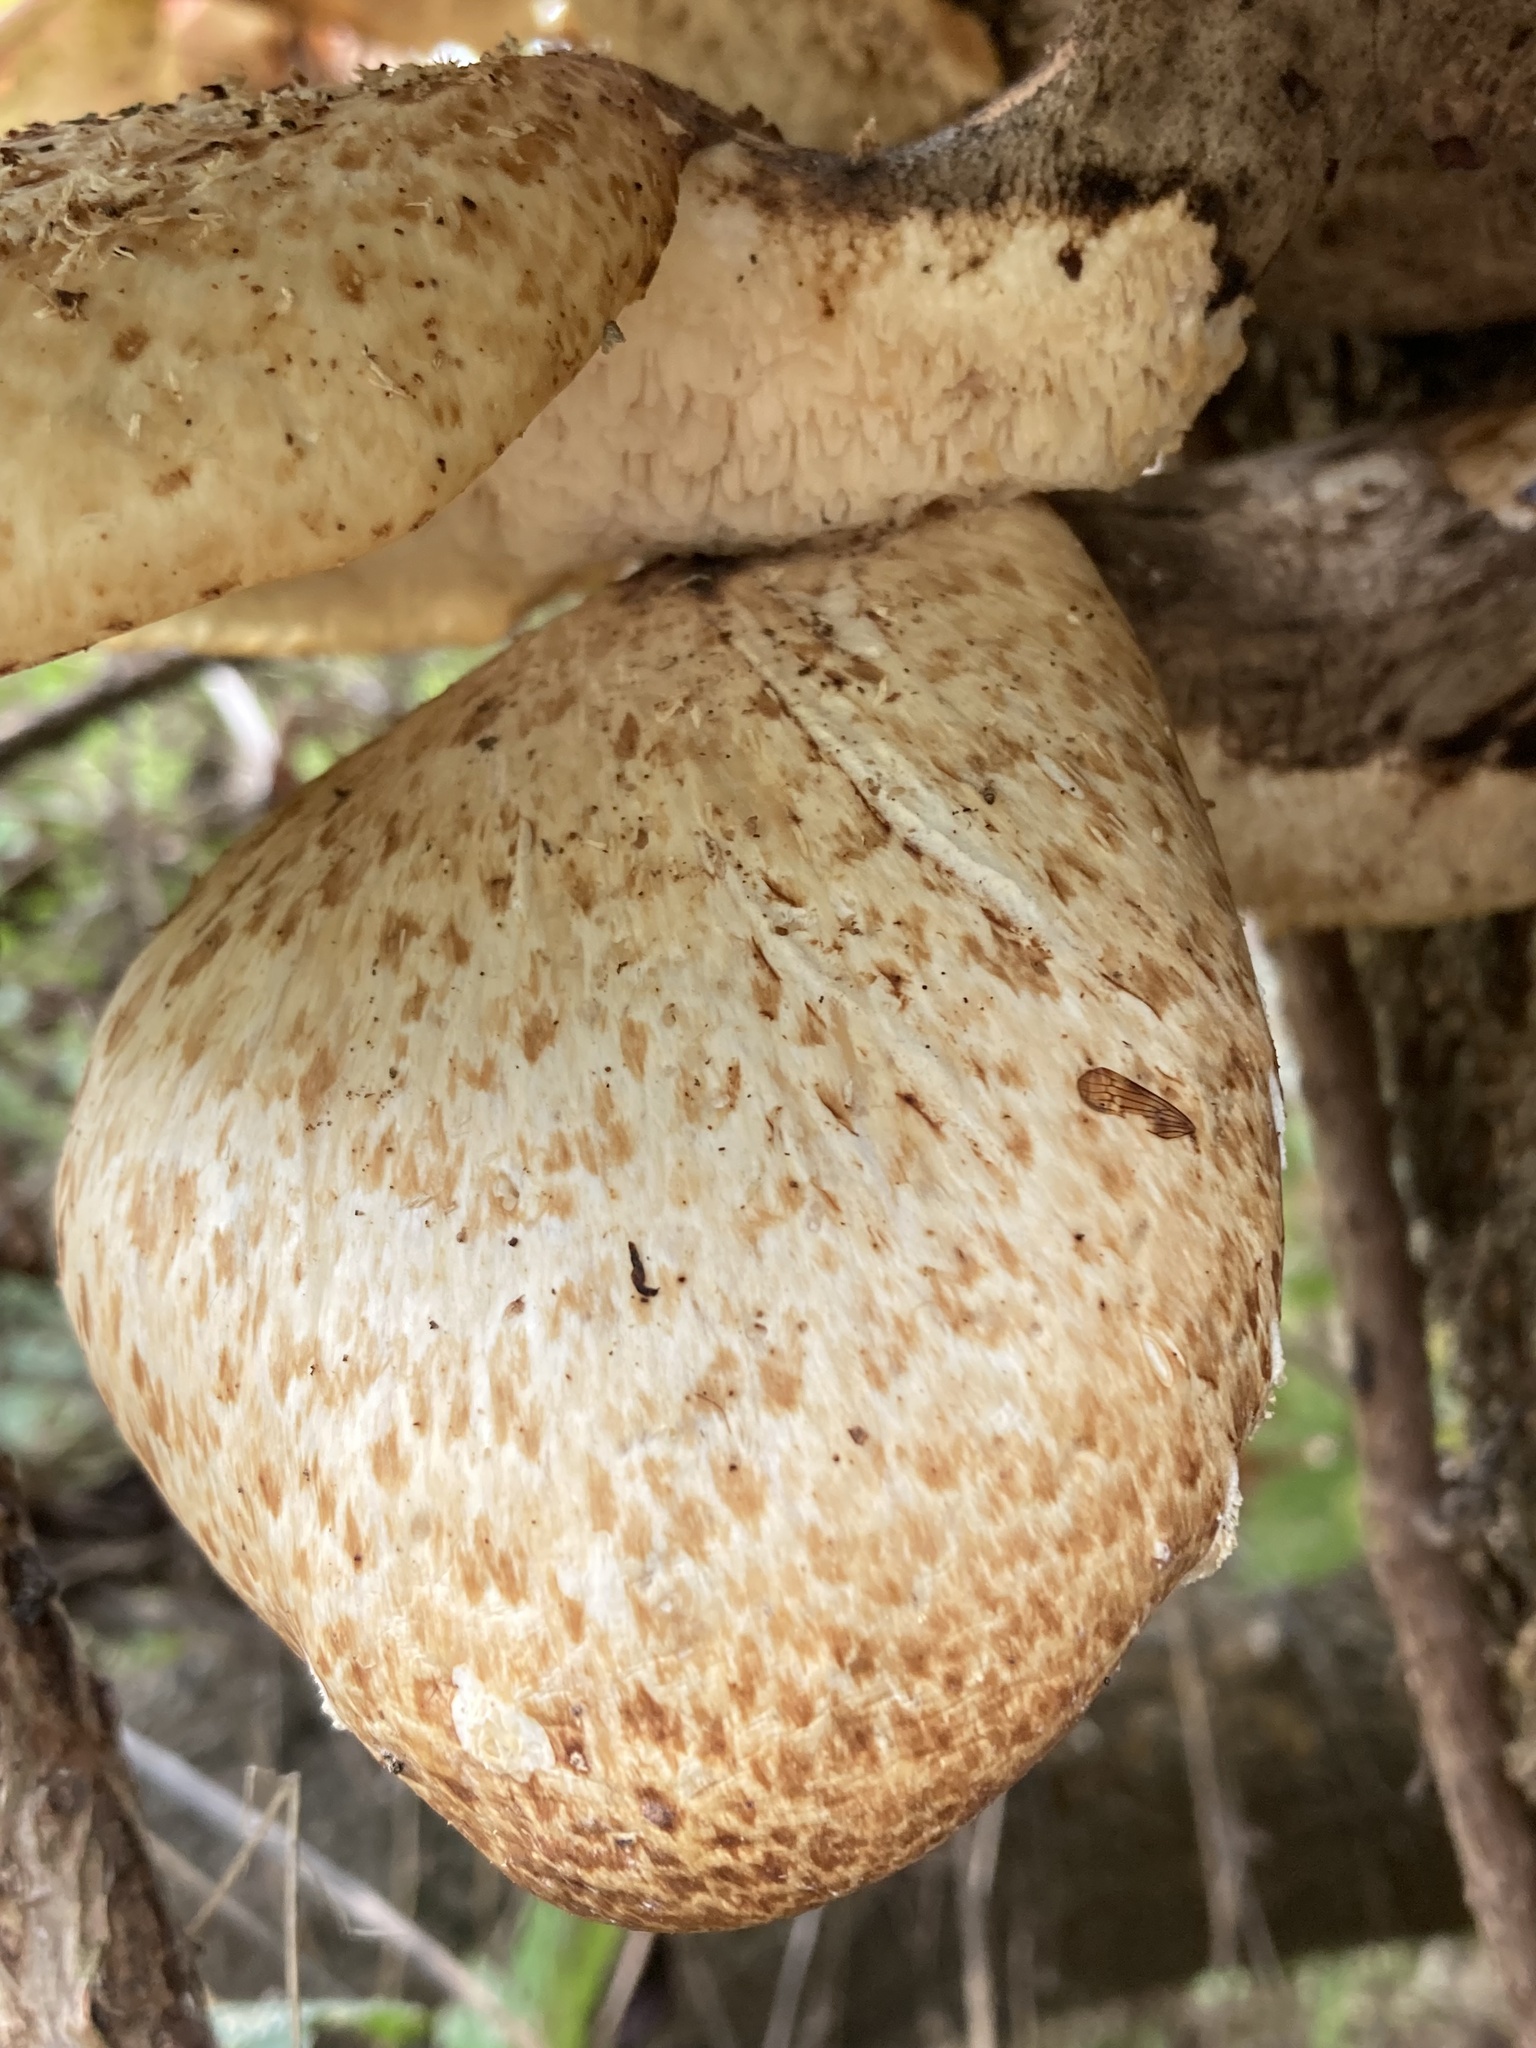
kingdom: Fungi
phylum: Basidiomycota
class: Agaricomycetes
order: Polyporales
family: Polyporaceae
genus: Cerioporus
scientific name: Cerioporus squamosus
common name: Dryad's saddle
